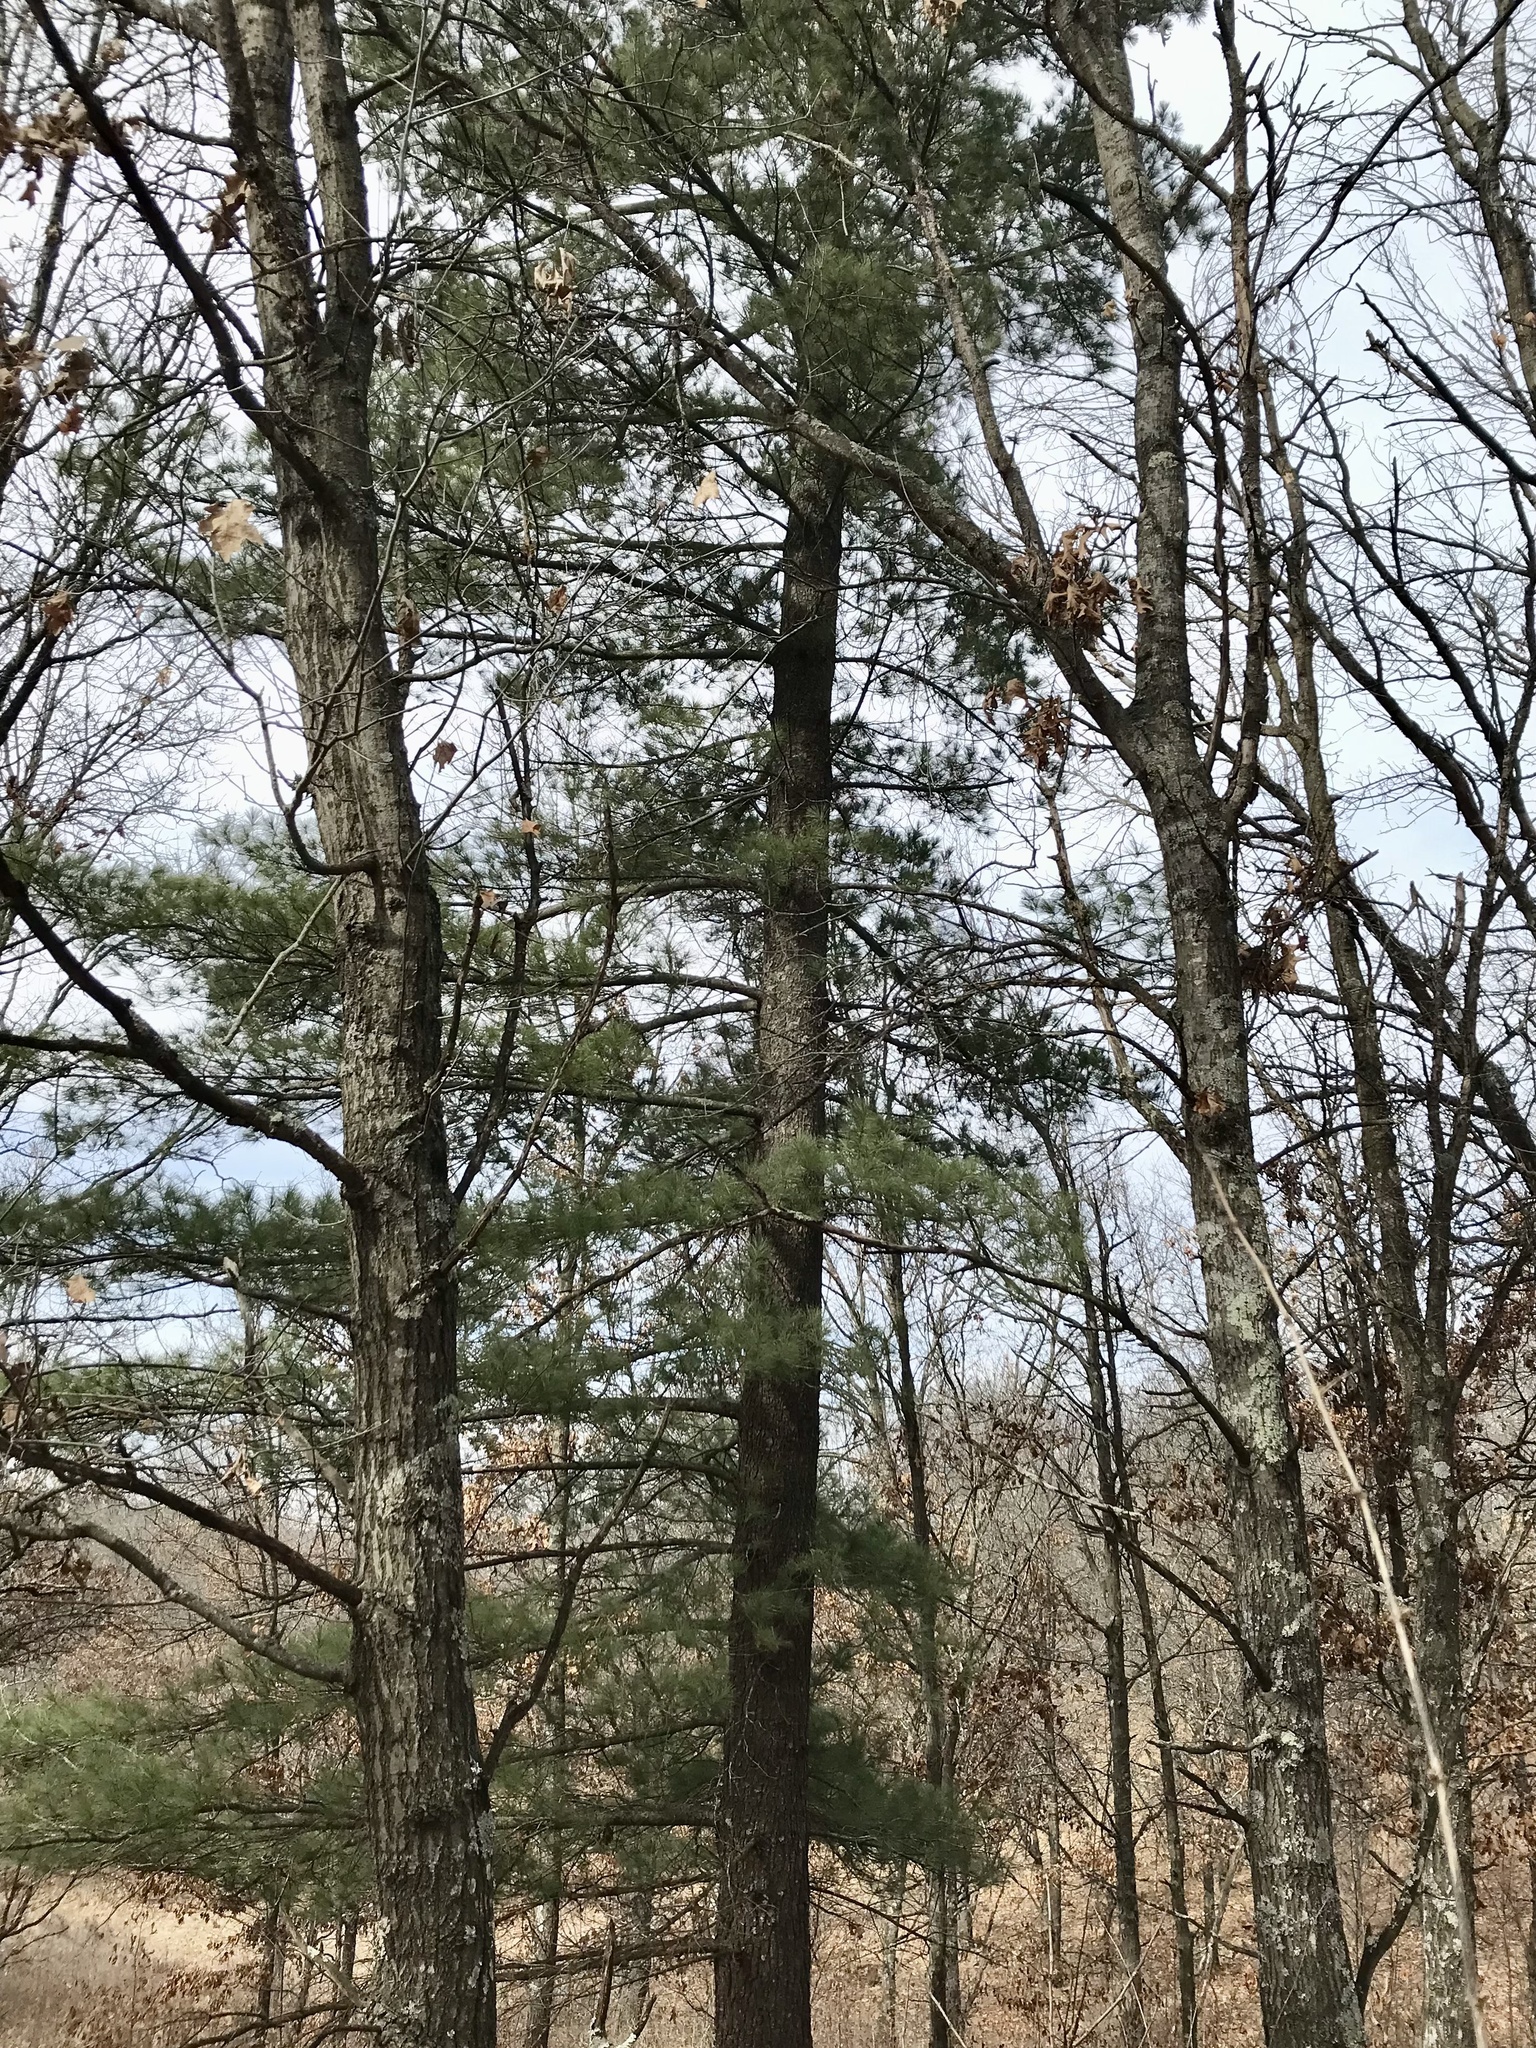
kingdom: Plantae
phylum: Tracheophyta
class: Pinopsida
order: Pinales
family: Pinaceae
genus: Pinus
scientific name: Pinus strobus
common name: Weymouth pine
